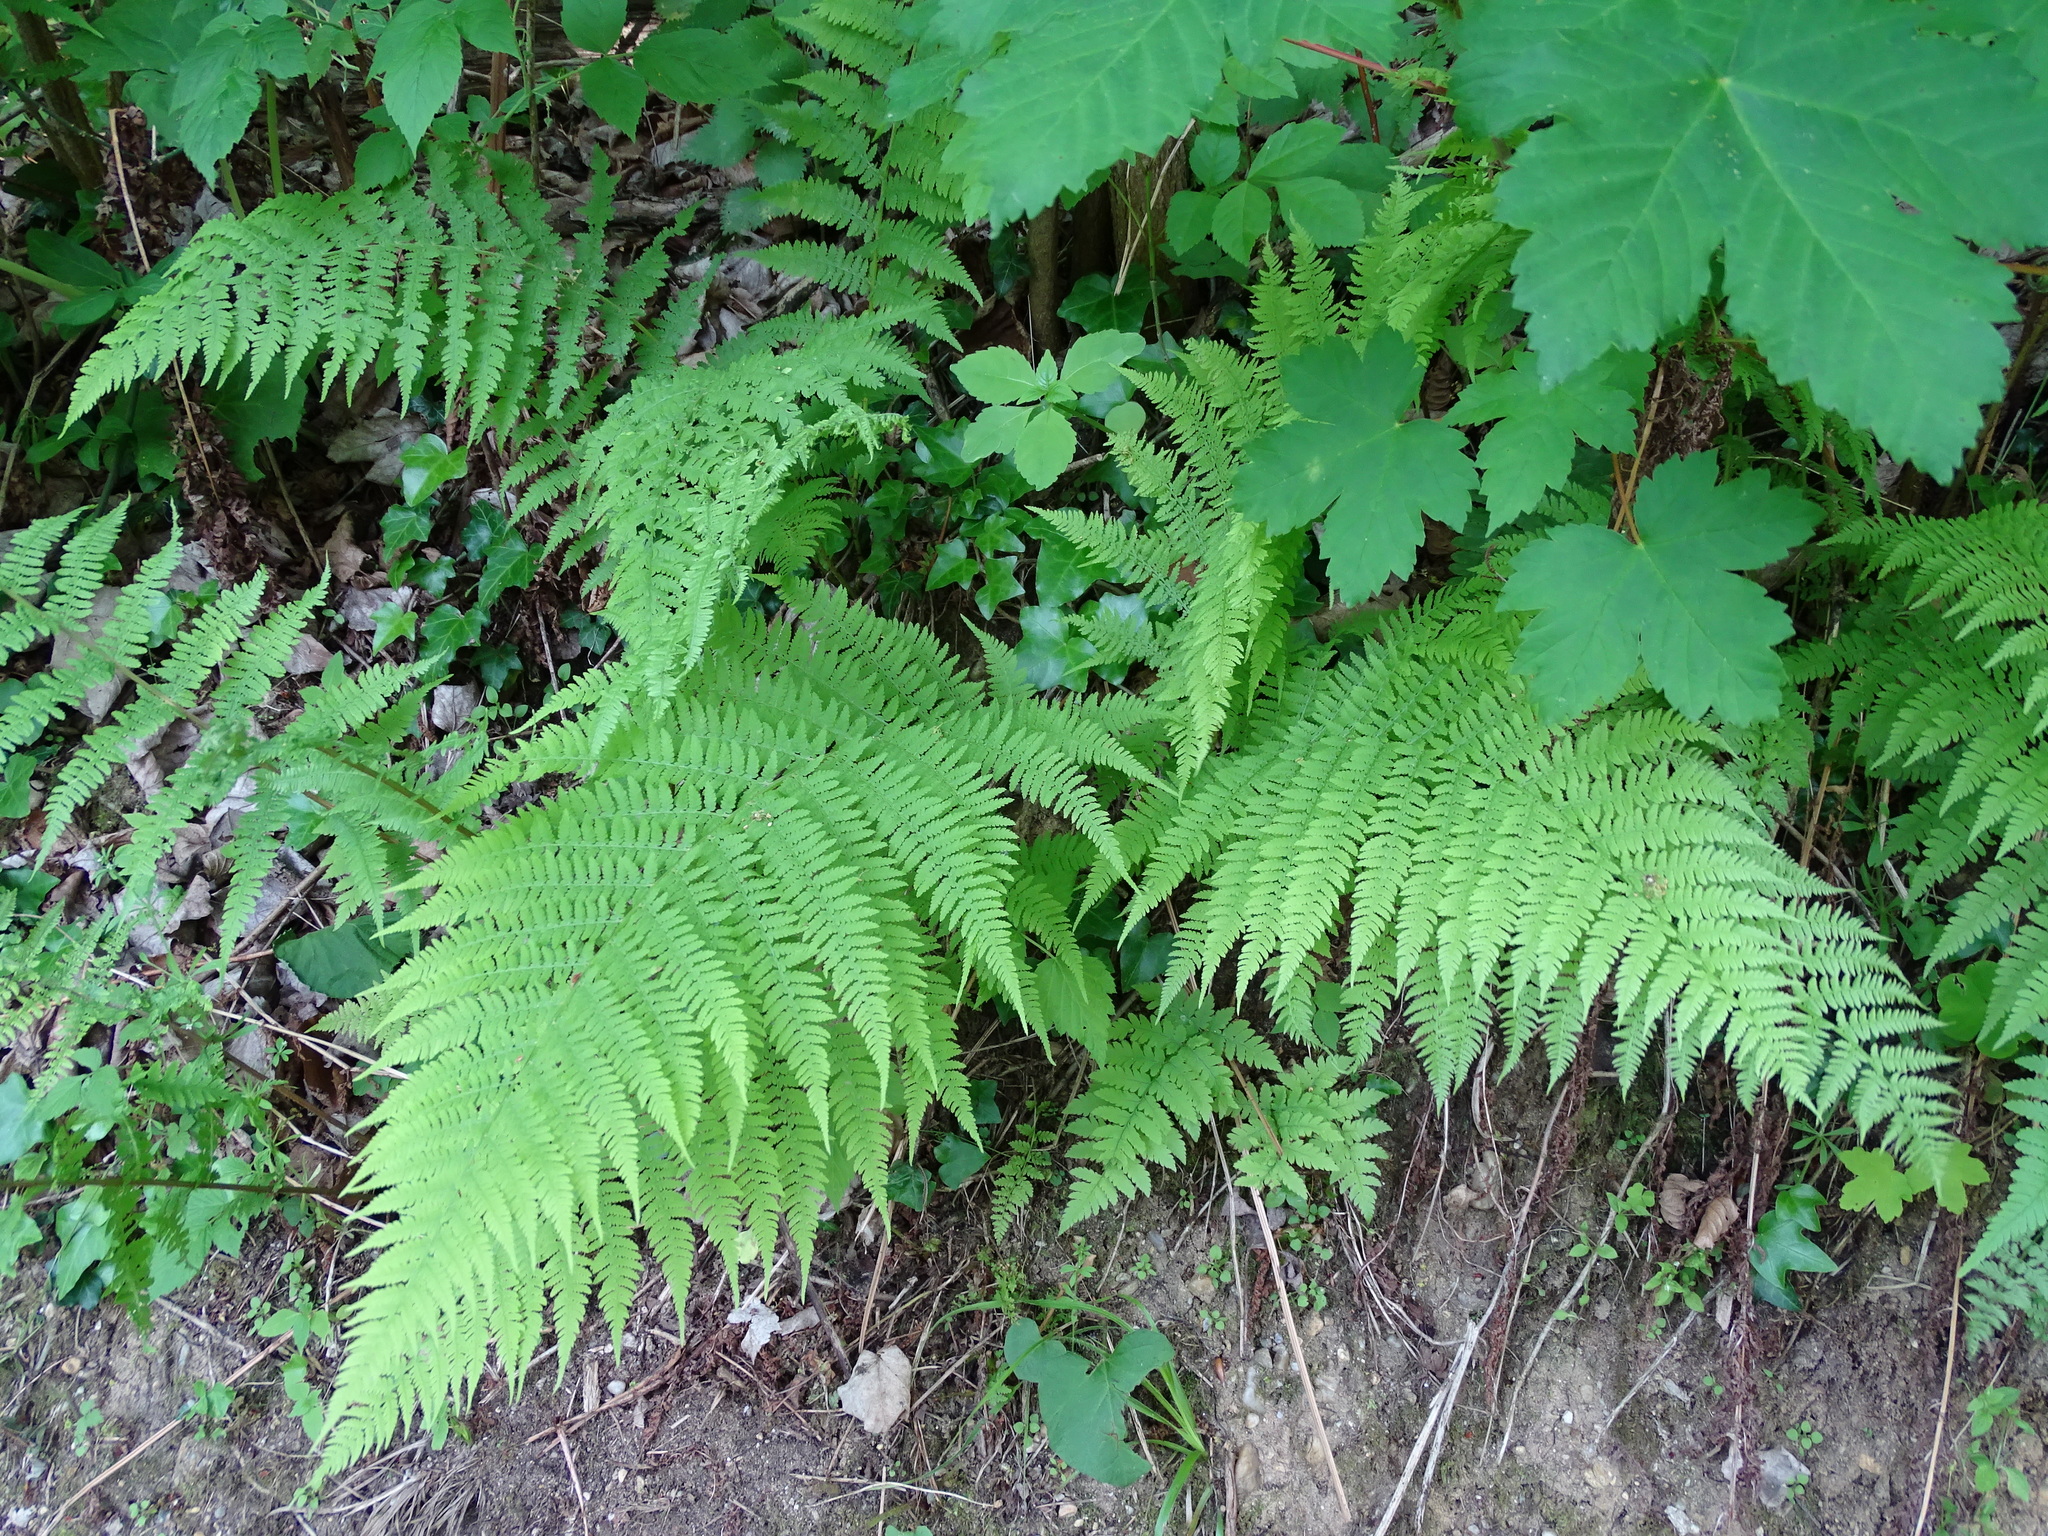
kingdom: Plantae
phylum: Tracheophyta
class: Polypodiopsida
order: Polypodiales
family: Athyriaceae
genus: Athyrium
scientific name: Athyrium filix-femina
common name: Lady fern
